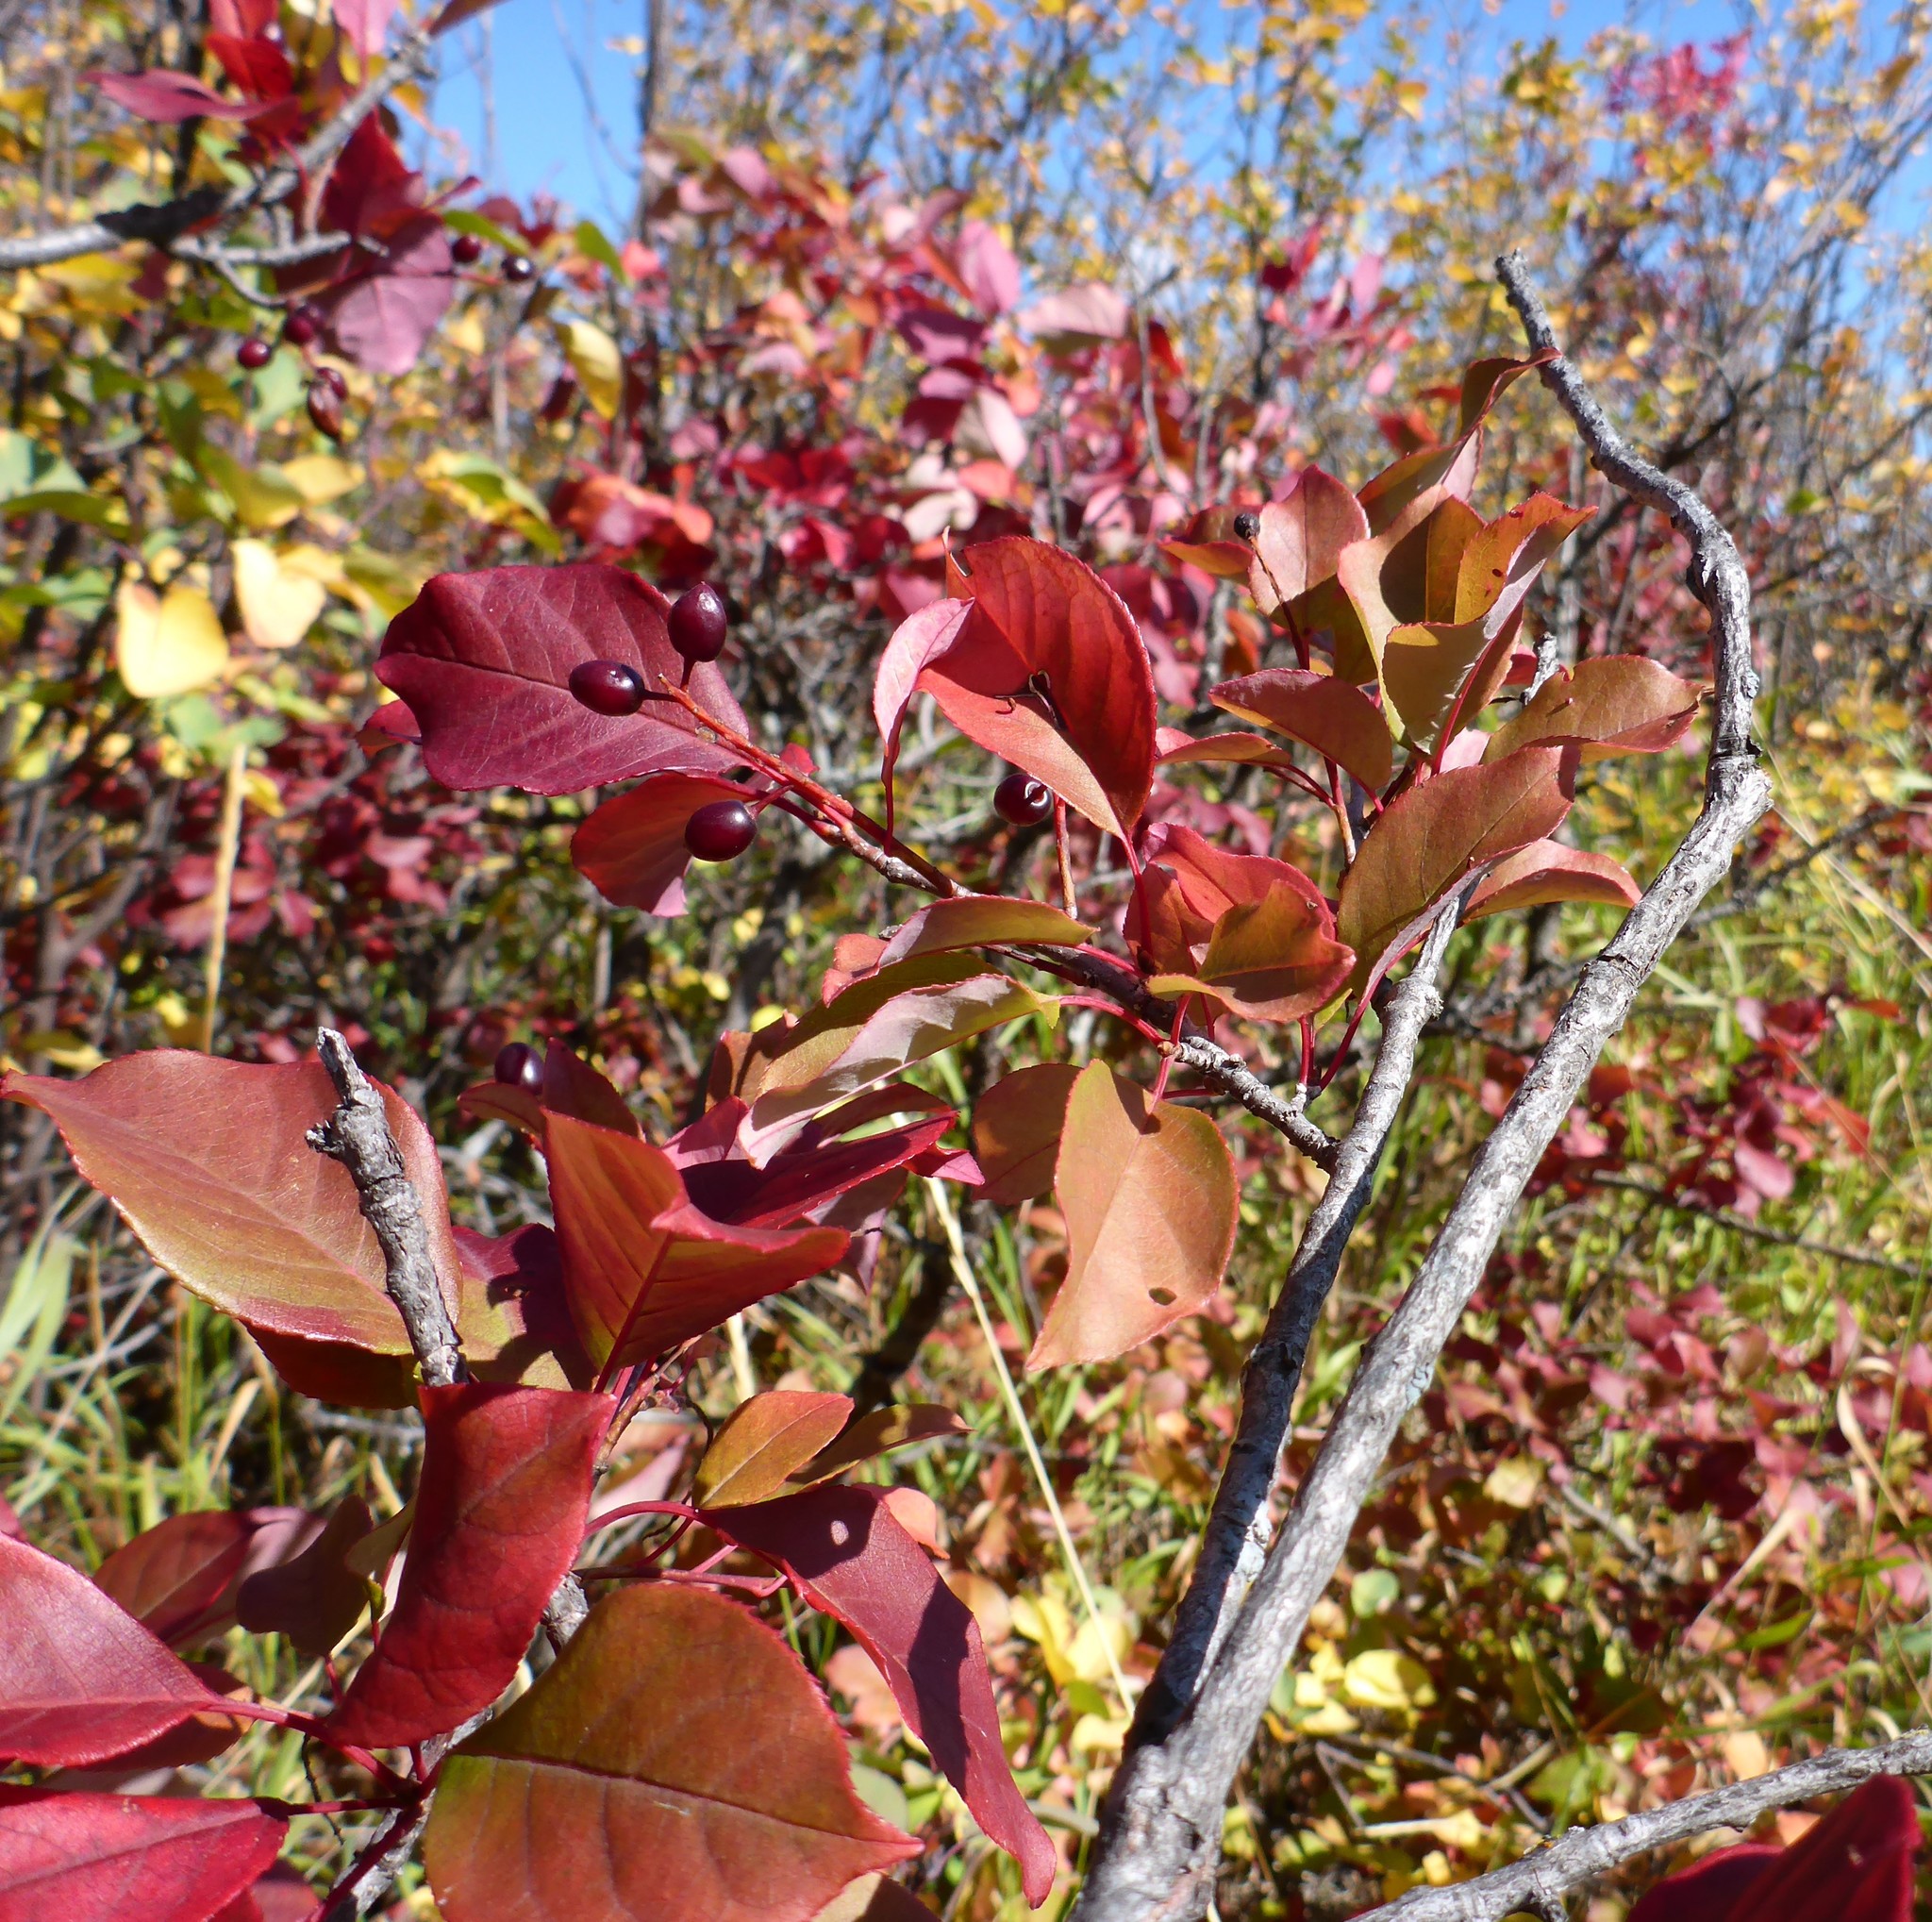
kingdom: Plantae
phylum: Tracheophyta
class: Magnoliopsida
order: Rosales
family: Rosaceae
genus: Prunus
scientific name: Prunus virginiana
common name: Chokecherry
